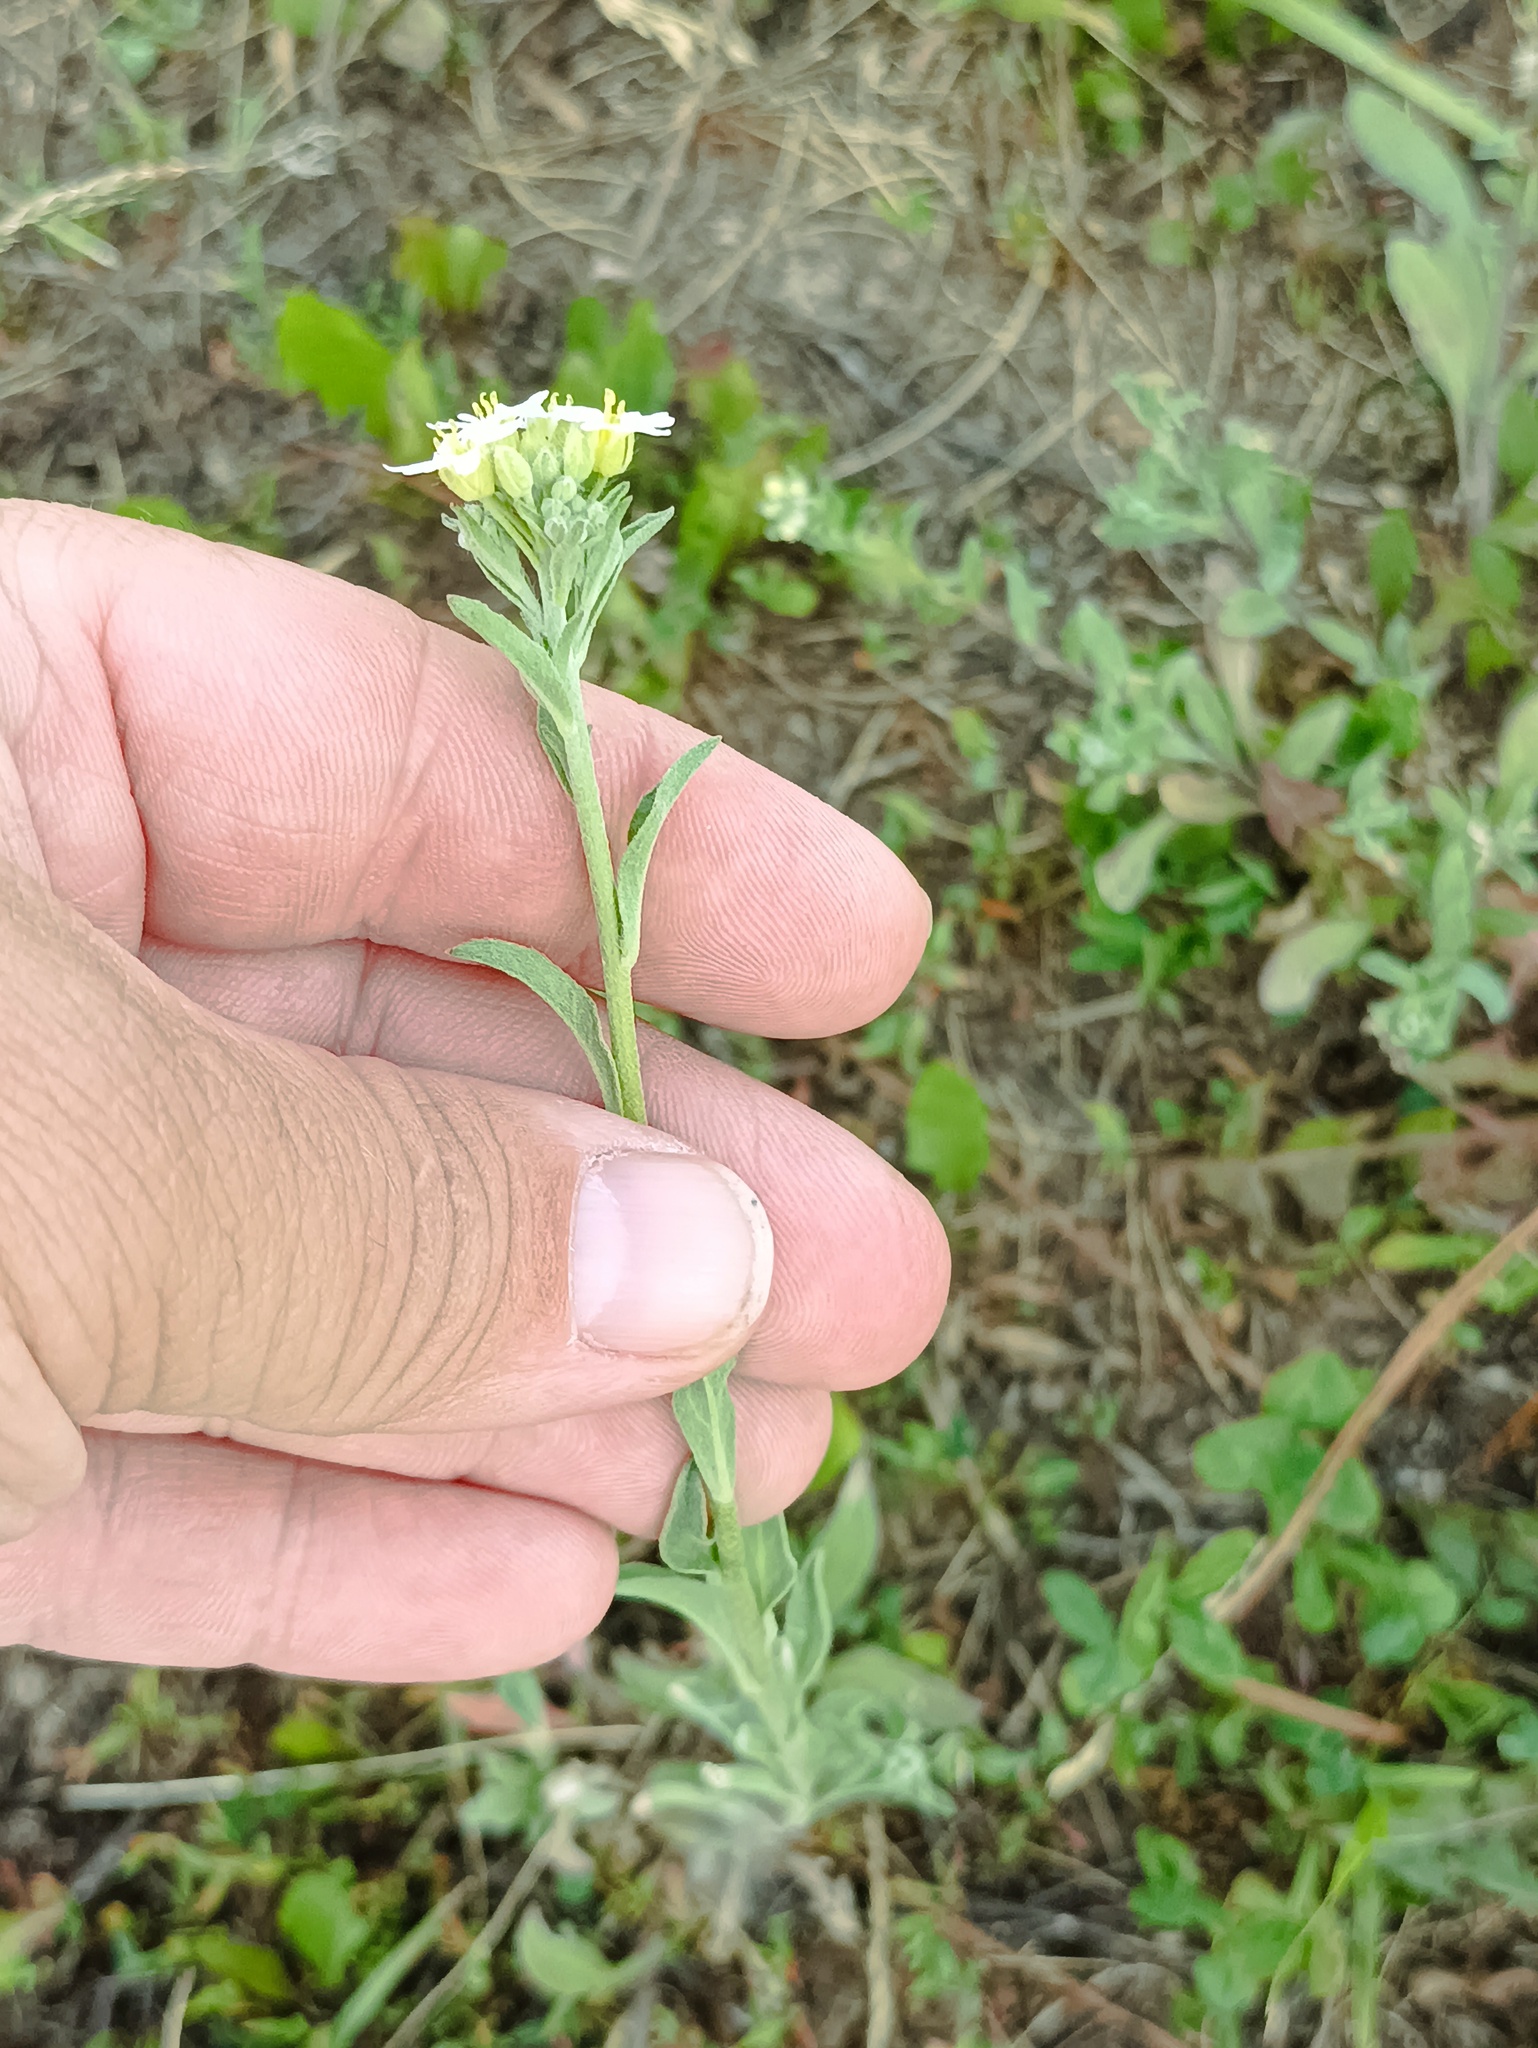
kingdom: Plantae
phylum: Tracheophyta
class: Magnoliopsida
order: Brassicales
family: Brassicaceae
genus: Berteroa
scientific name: Berteroa incana
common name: Hoary alison
